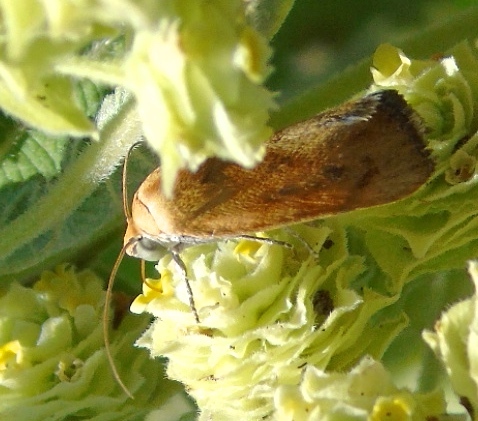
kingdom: Animalia
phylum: Arthropoda
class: Insecta
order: Lepidoptera
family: Noctuidae
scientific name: Noctuidae
